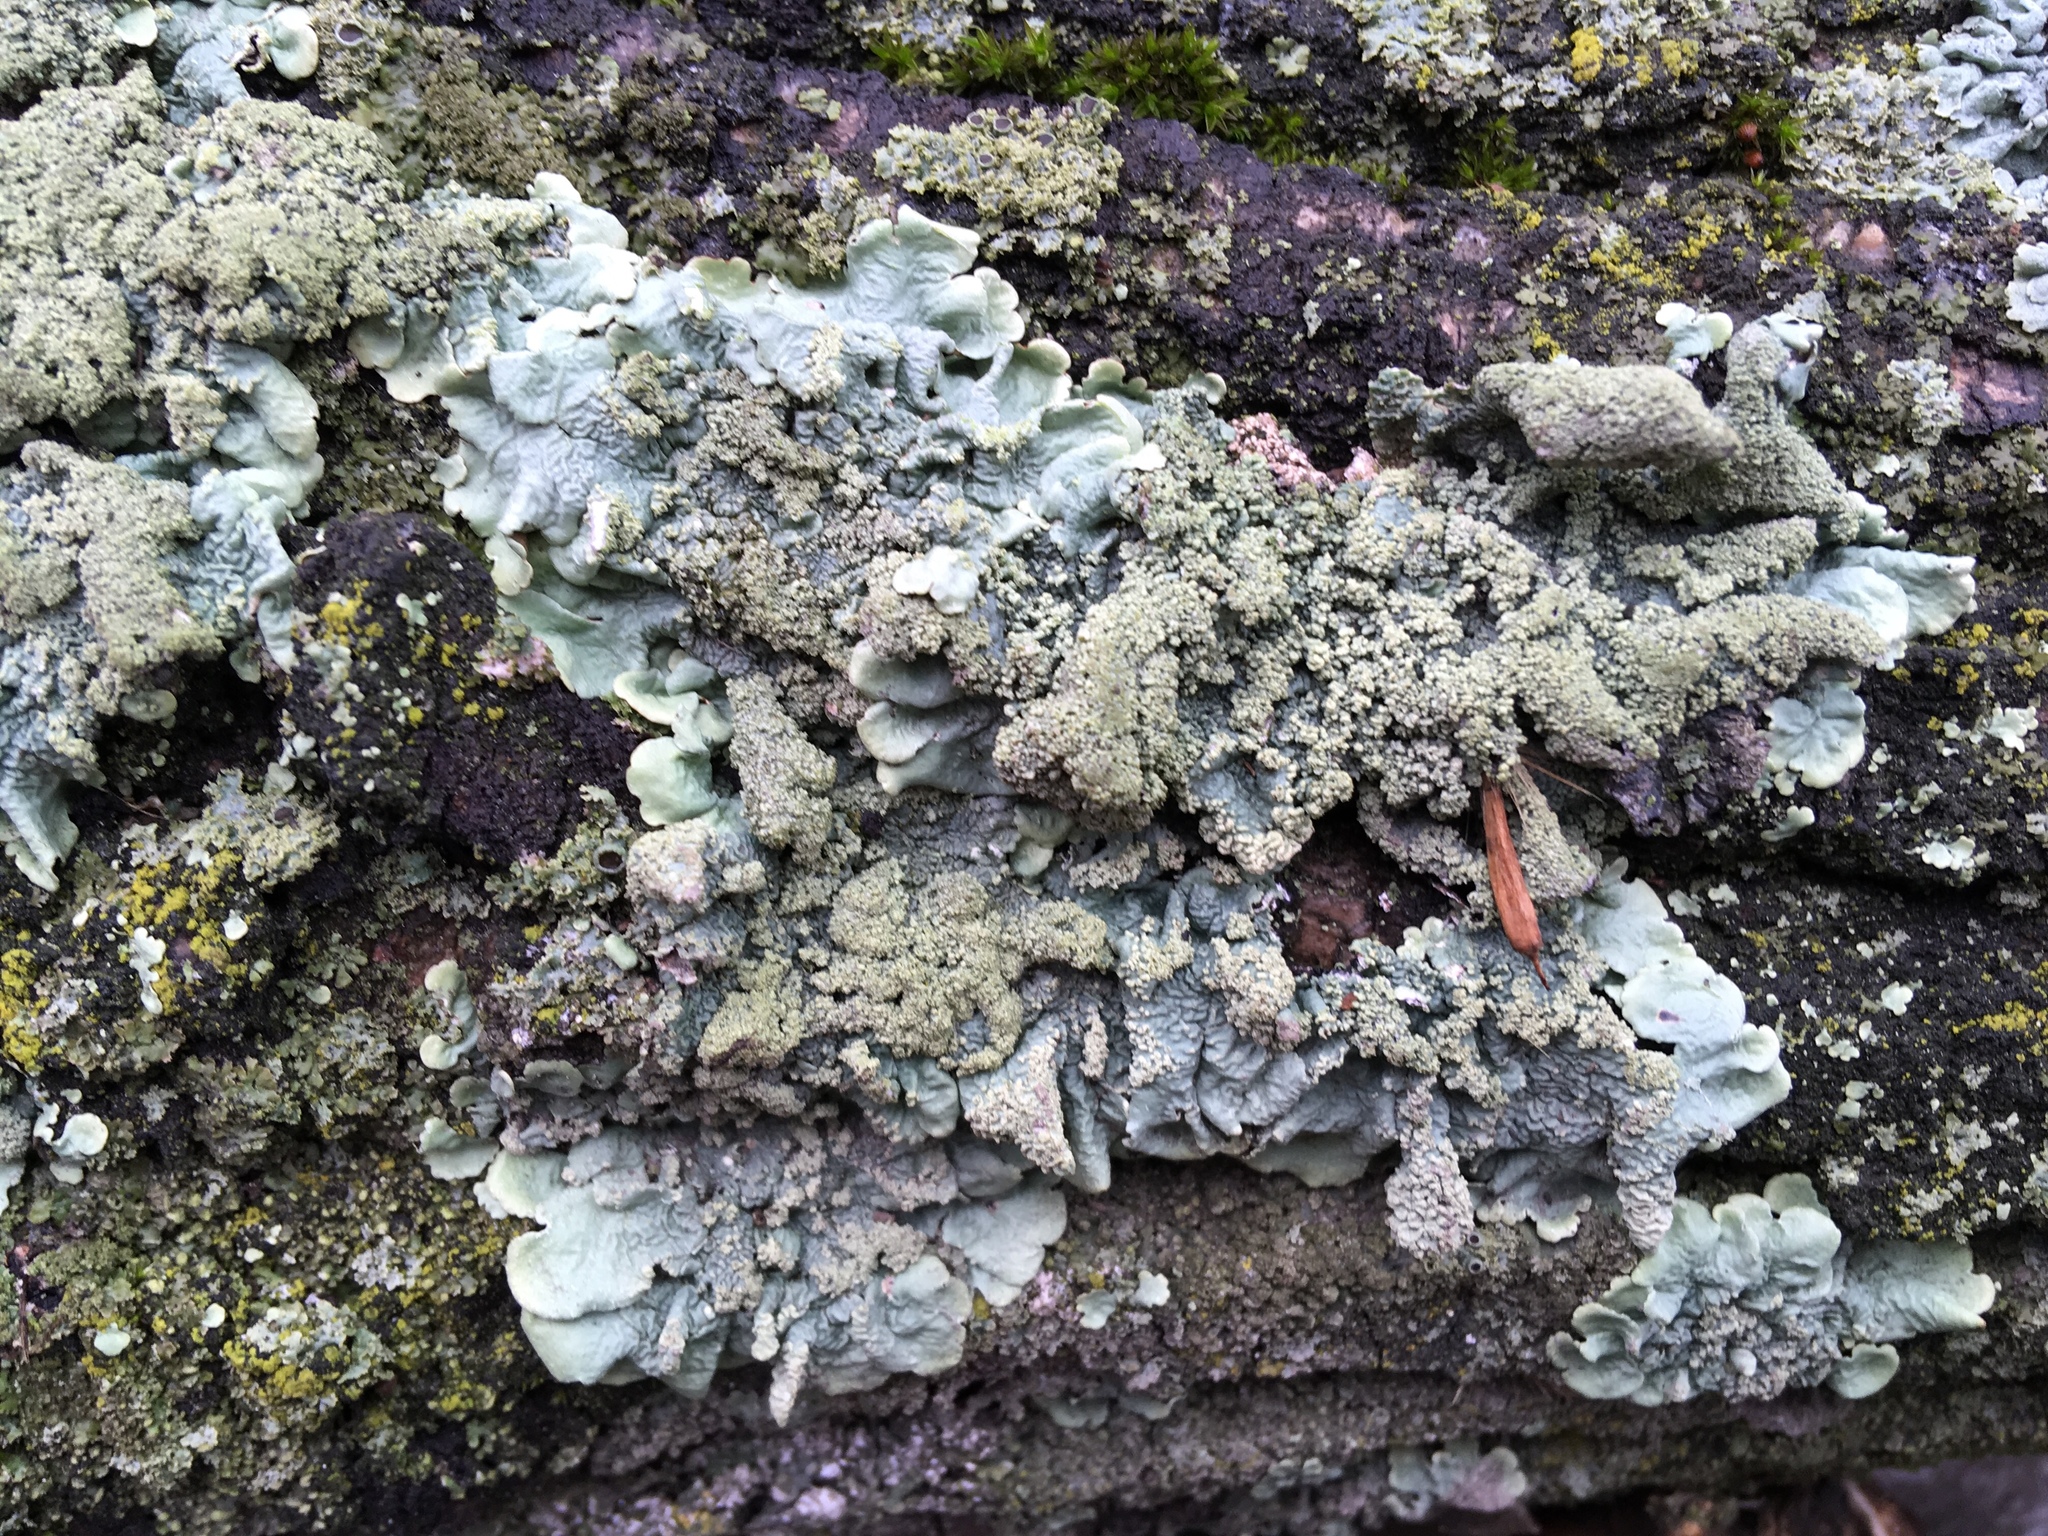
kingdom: Fungi
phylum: Ascomycota
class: Lecanoromycetes
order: Lecanorales
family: Parmeliaceae
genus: Flavoparmelia
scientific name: Flavoparmelia caperata
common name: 40-mile per hour lichen
